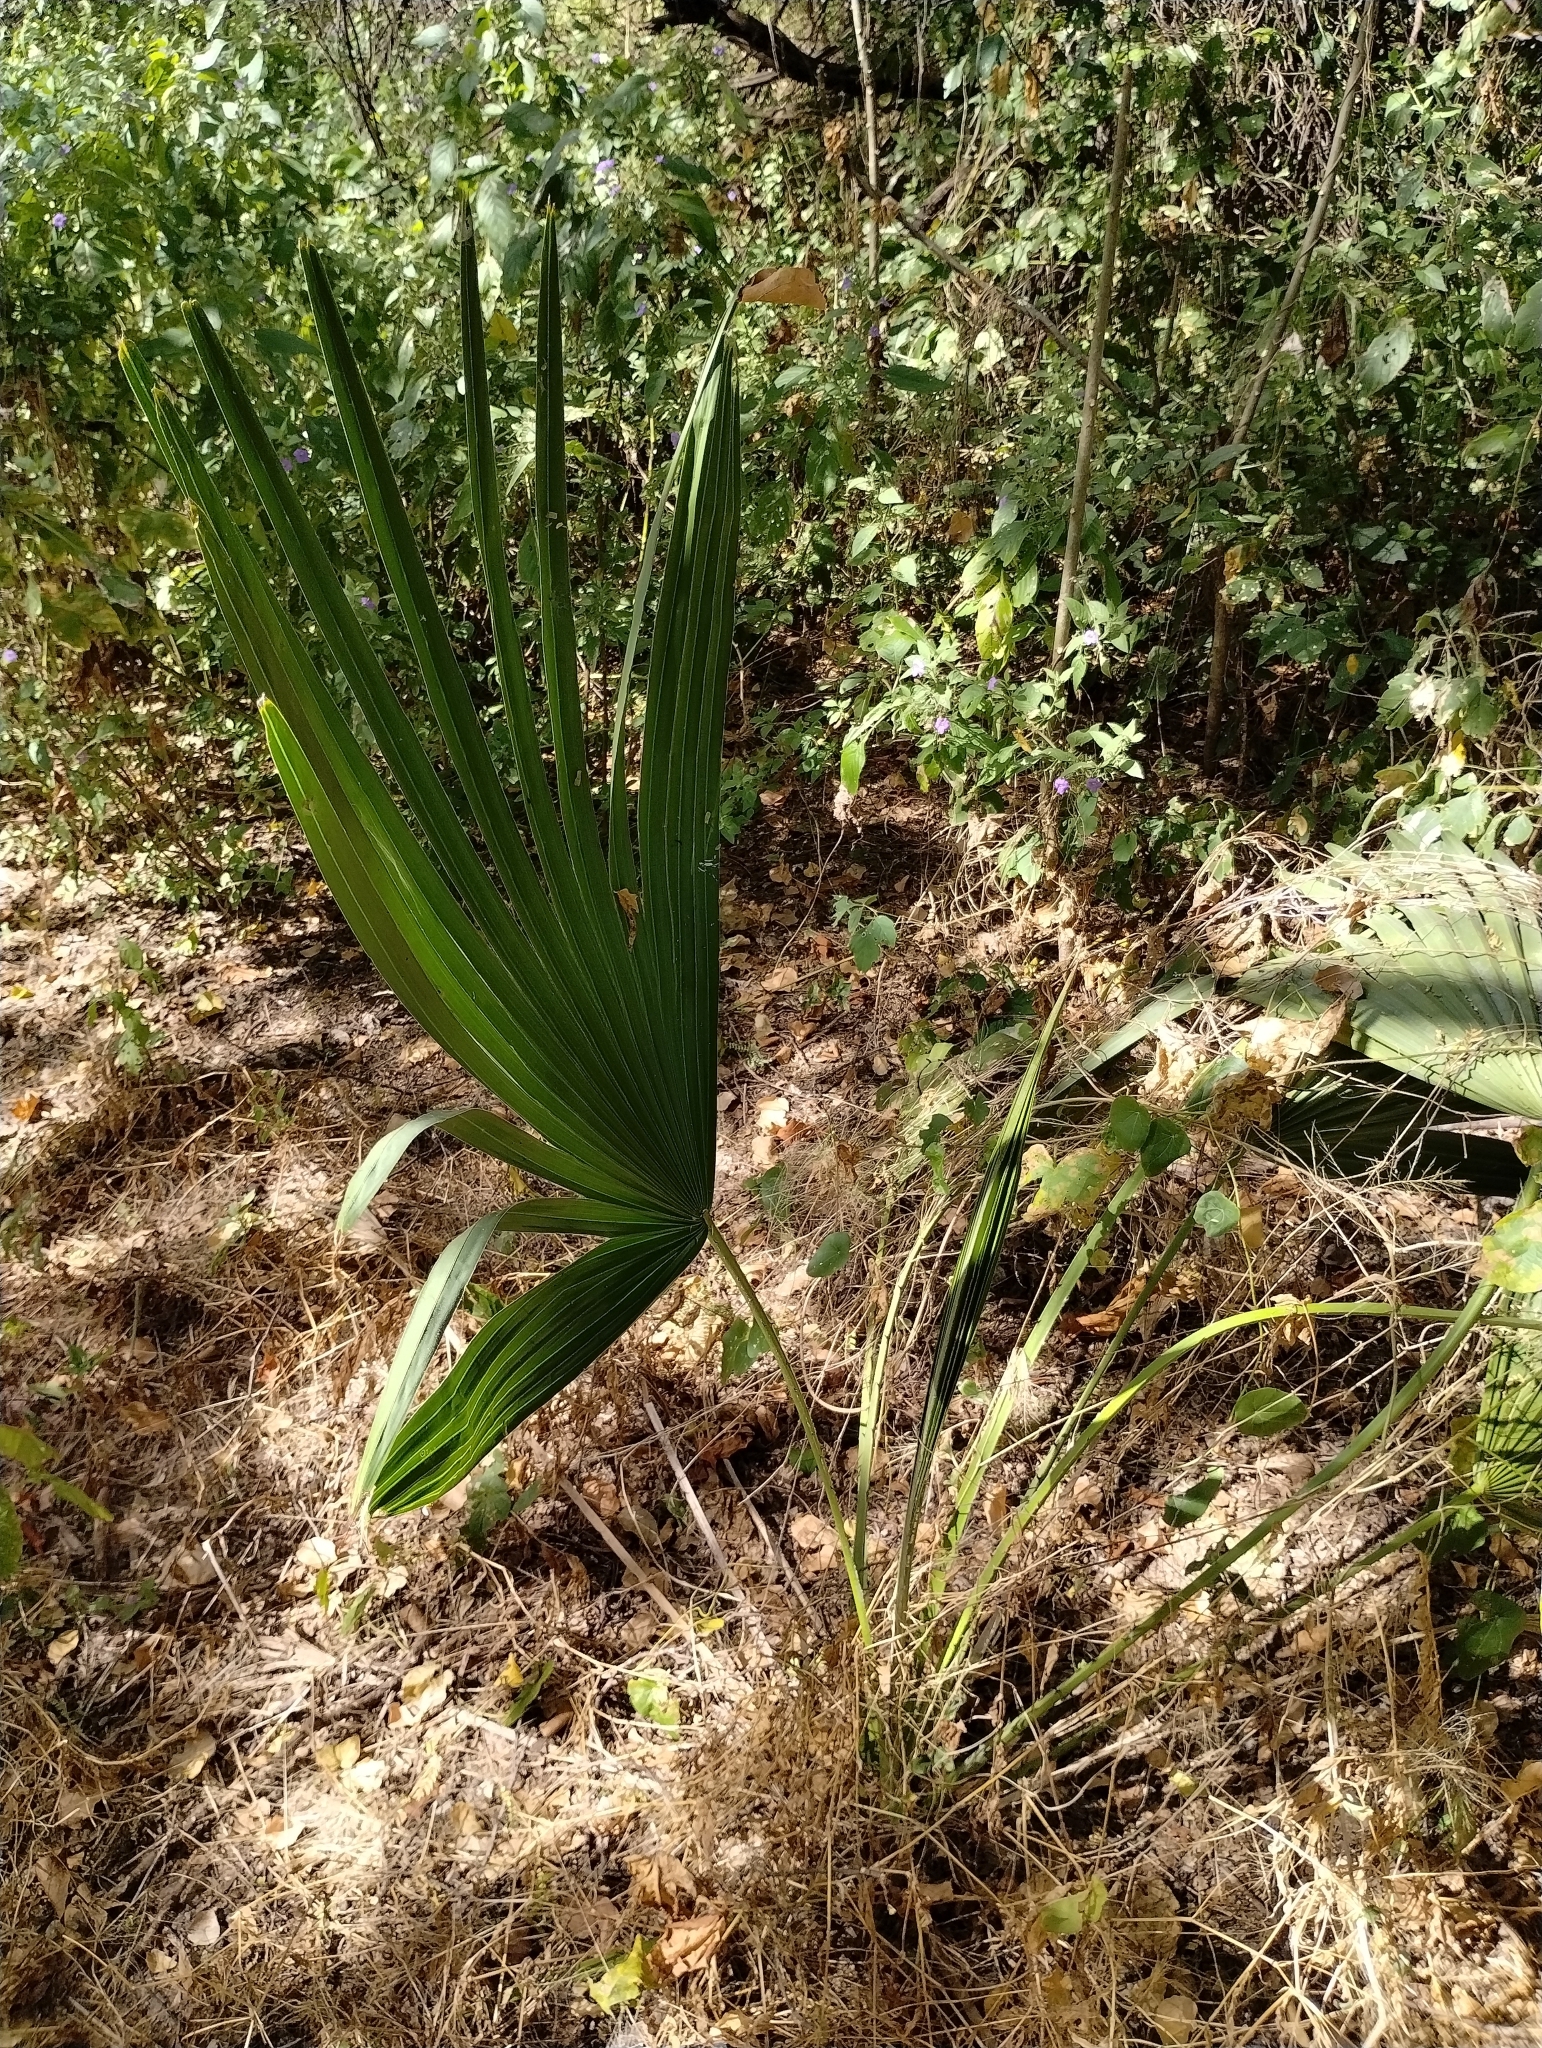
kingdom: Plantae
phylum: Tracheophyta
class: Liliopsida
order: Arecales
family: Arecaceae
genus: Copernicia
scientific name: Copernicia prunifera
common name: Carnauba palm
